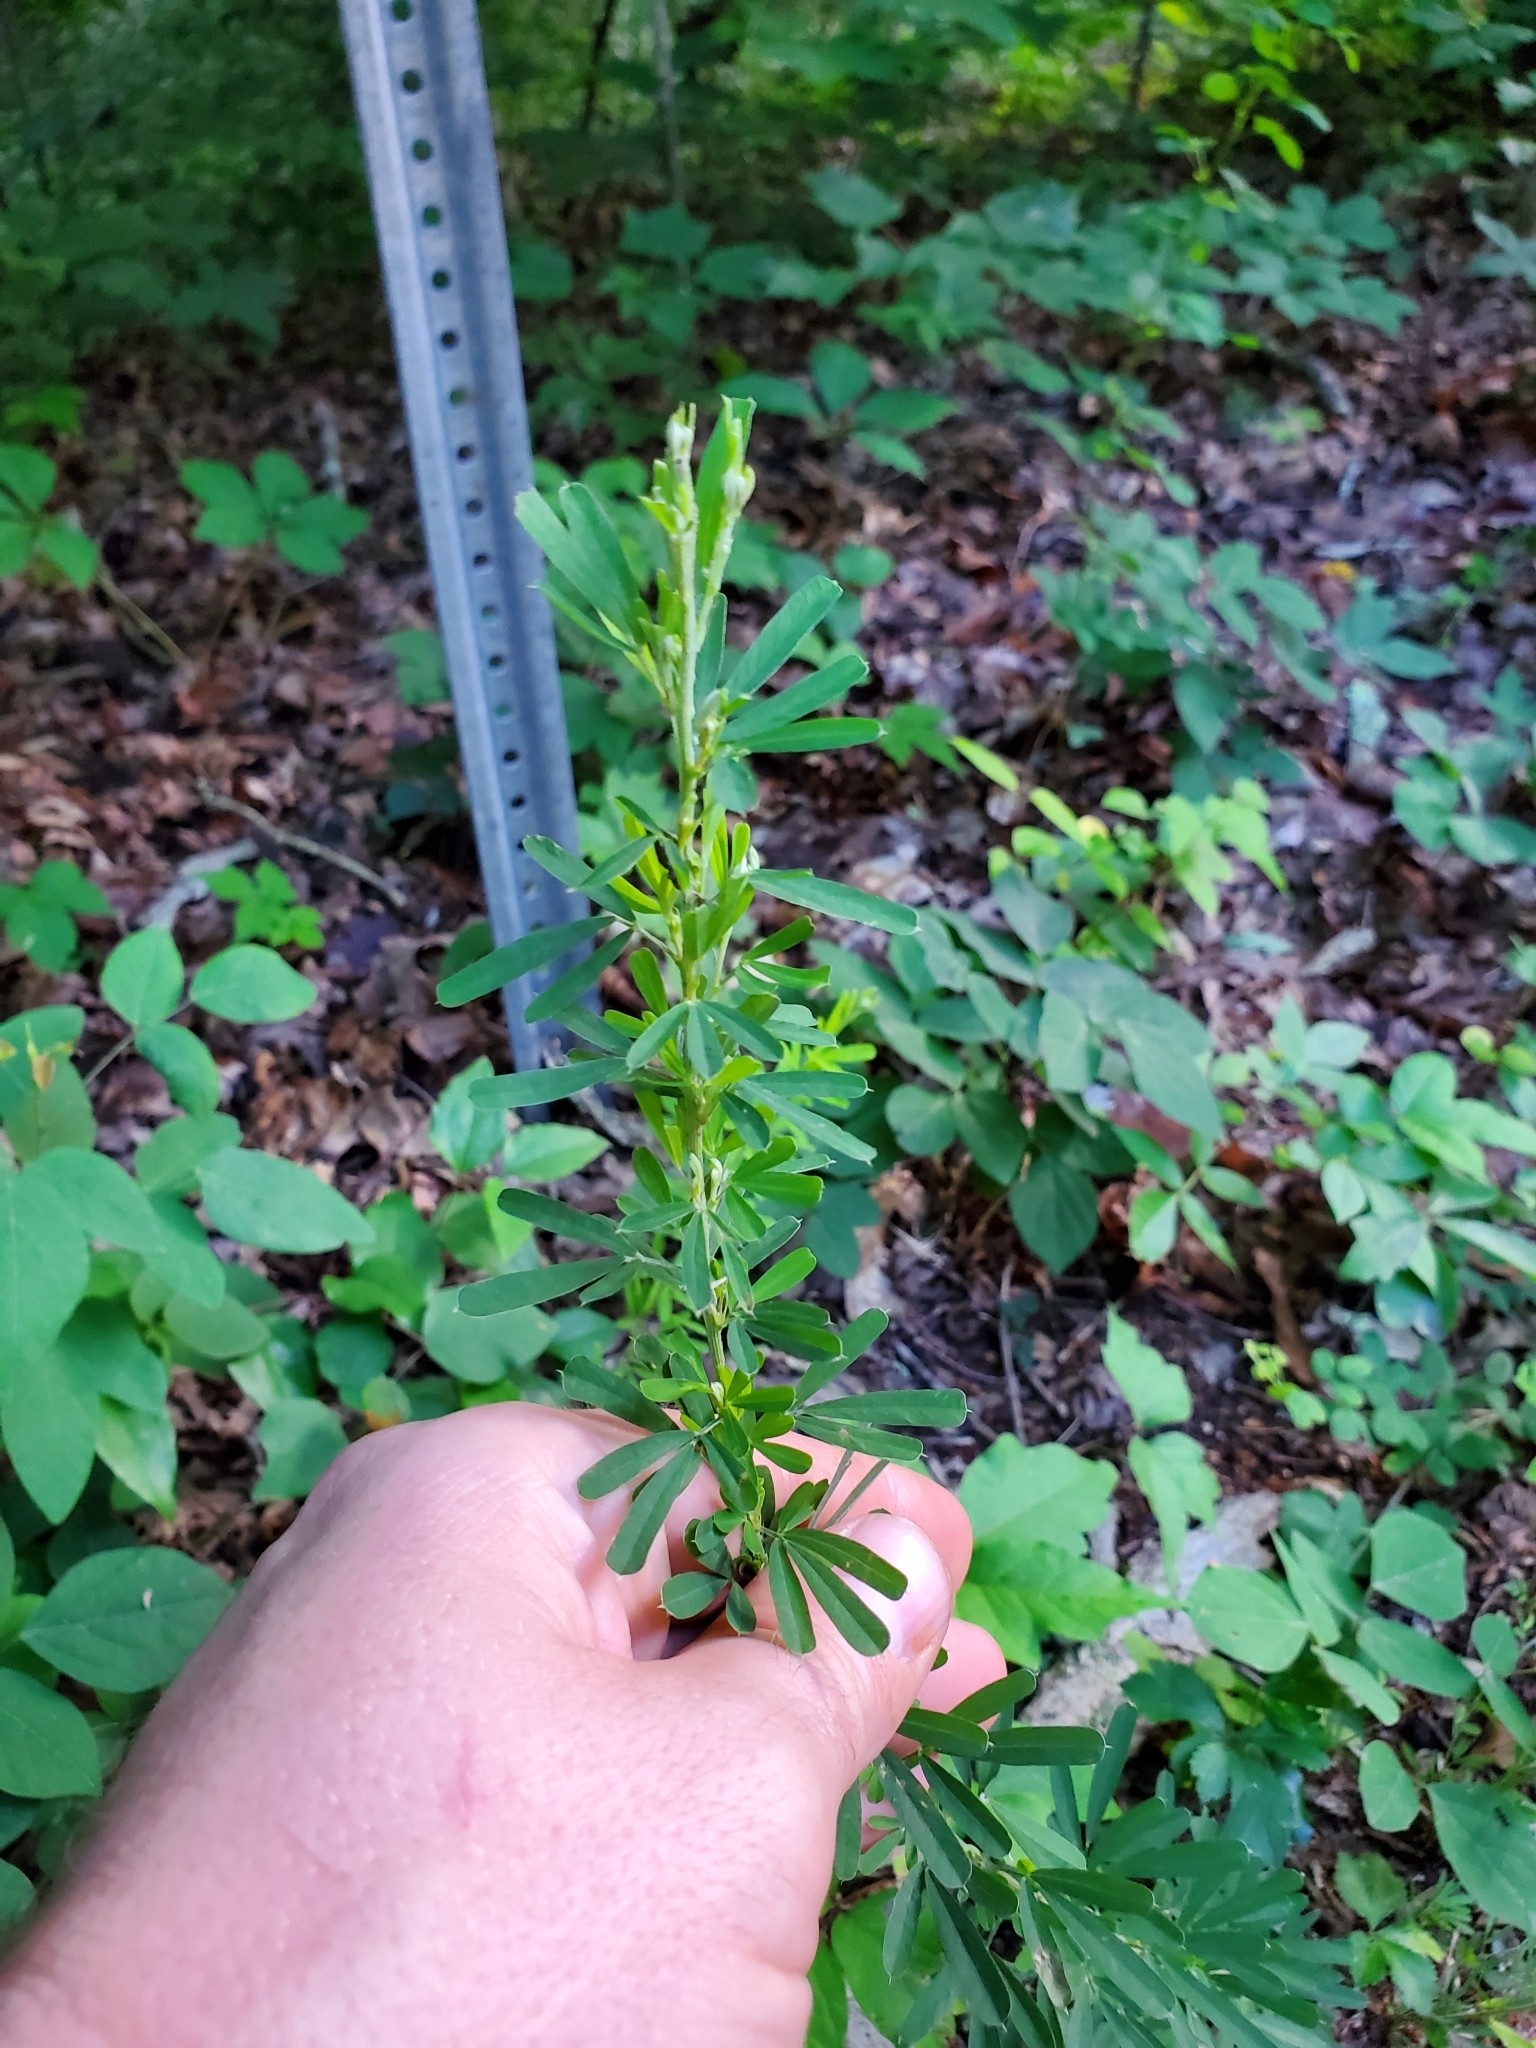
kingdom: Plantae
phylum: Tracheophyta
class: Magnoliopsida
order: Fabales
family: Fabaceae
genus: Lespedeza
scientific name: Lespedeza cuneata
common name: Chinese bush-clover
